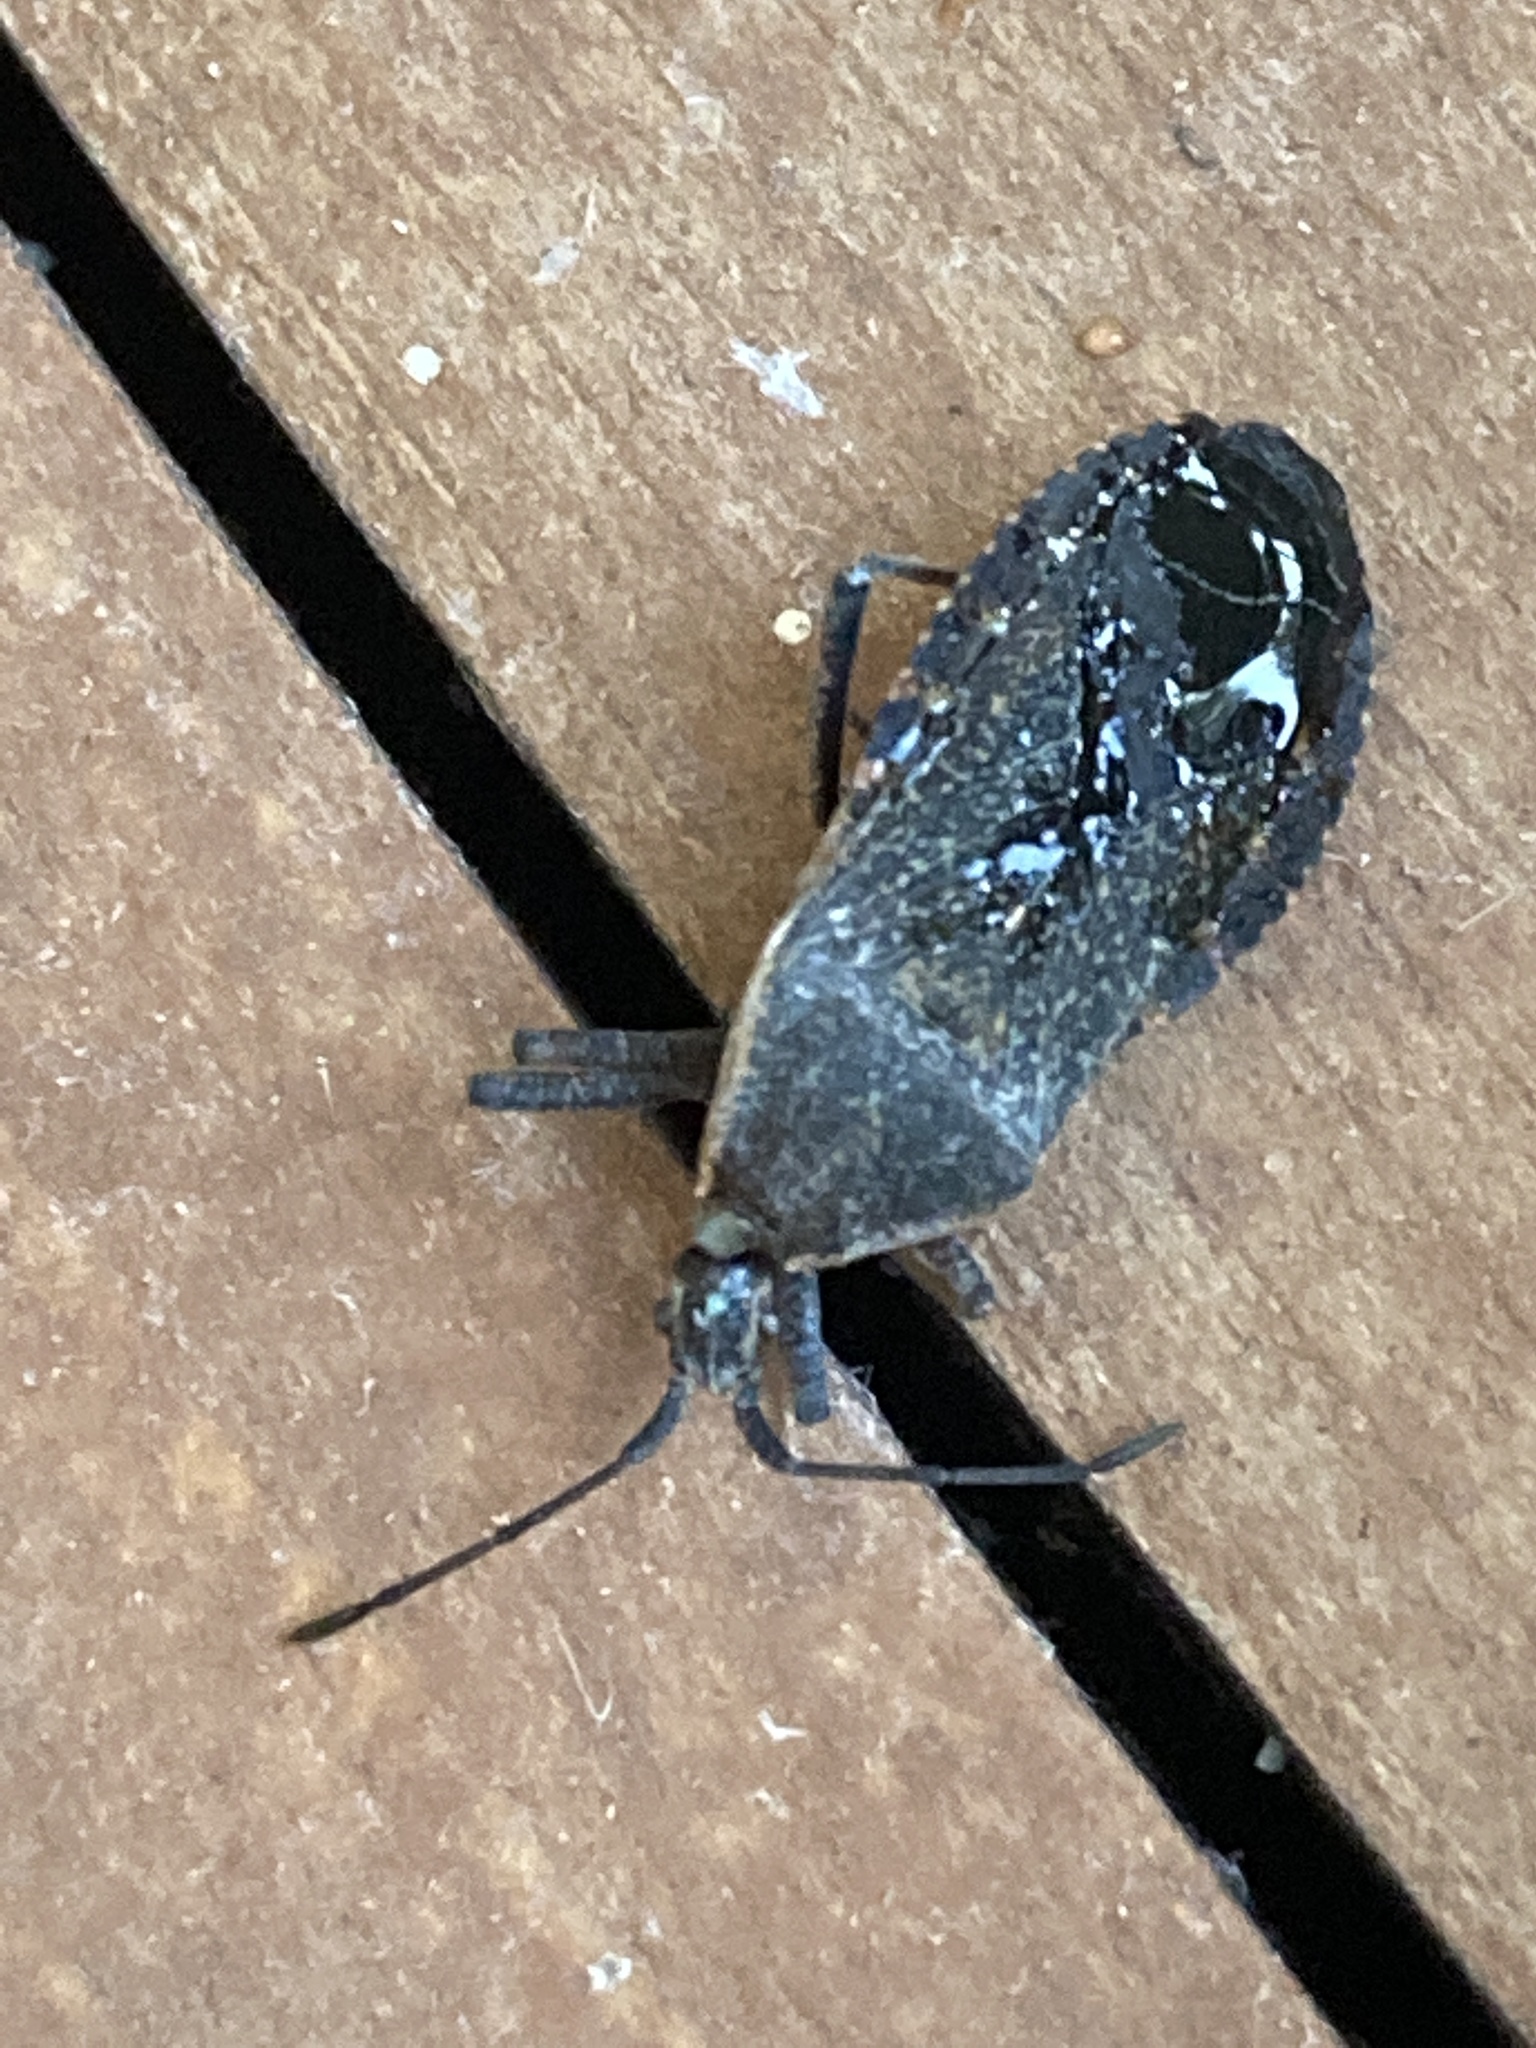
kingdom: Animalia
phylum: Arthropoda
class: Insecta
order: Hemiptera
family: Coreidae
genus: Anasa
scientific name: Anasa tristis
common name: Squash bug
